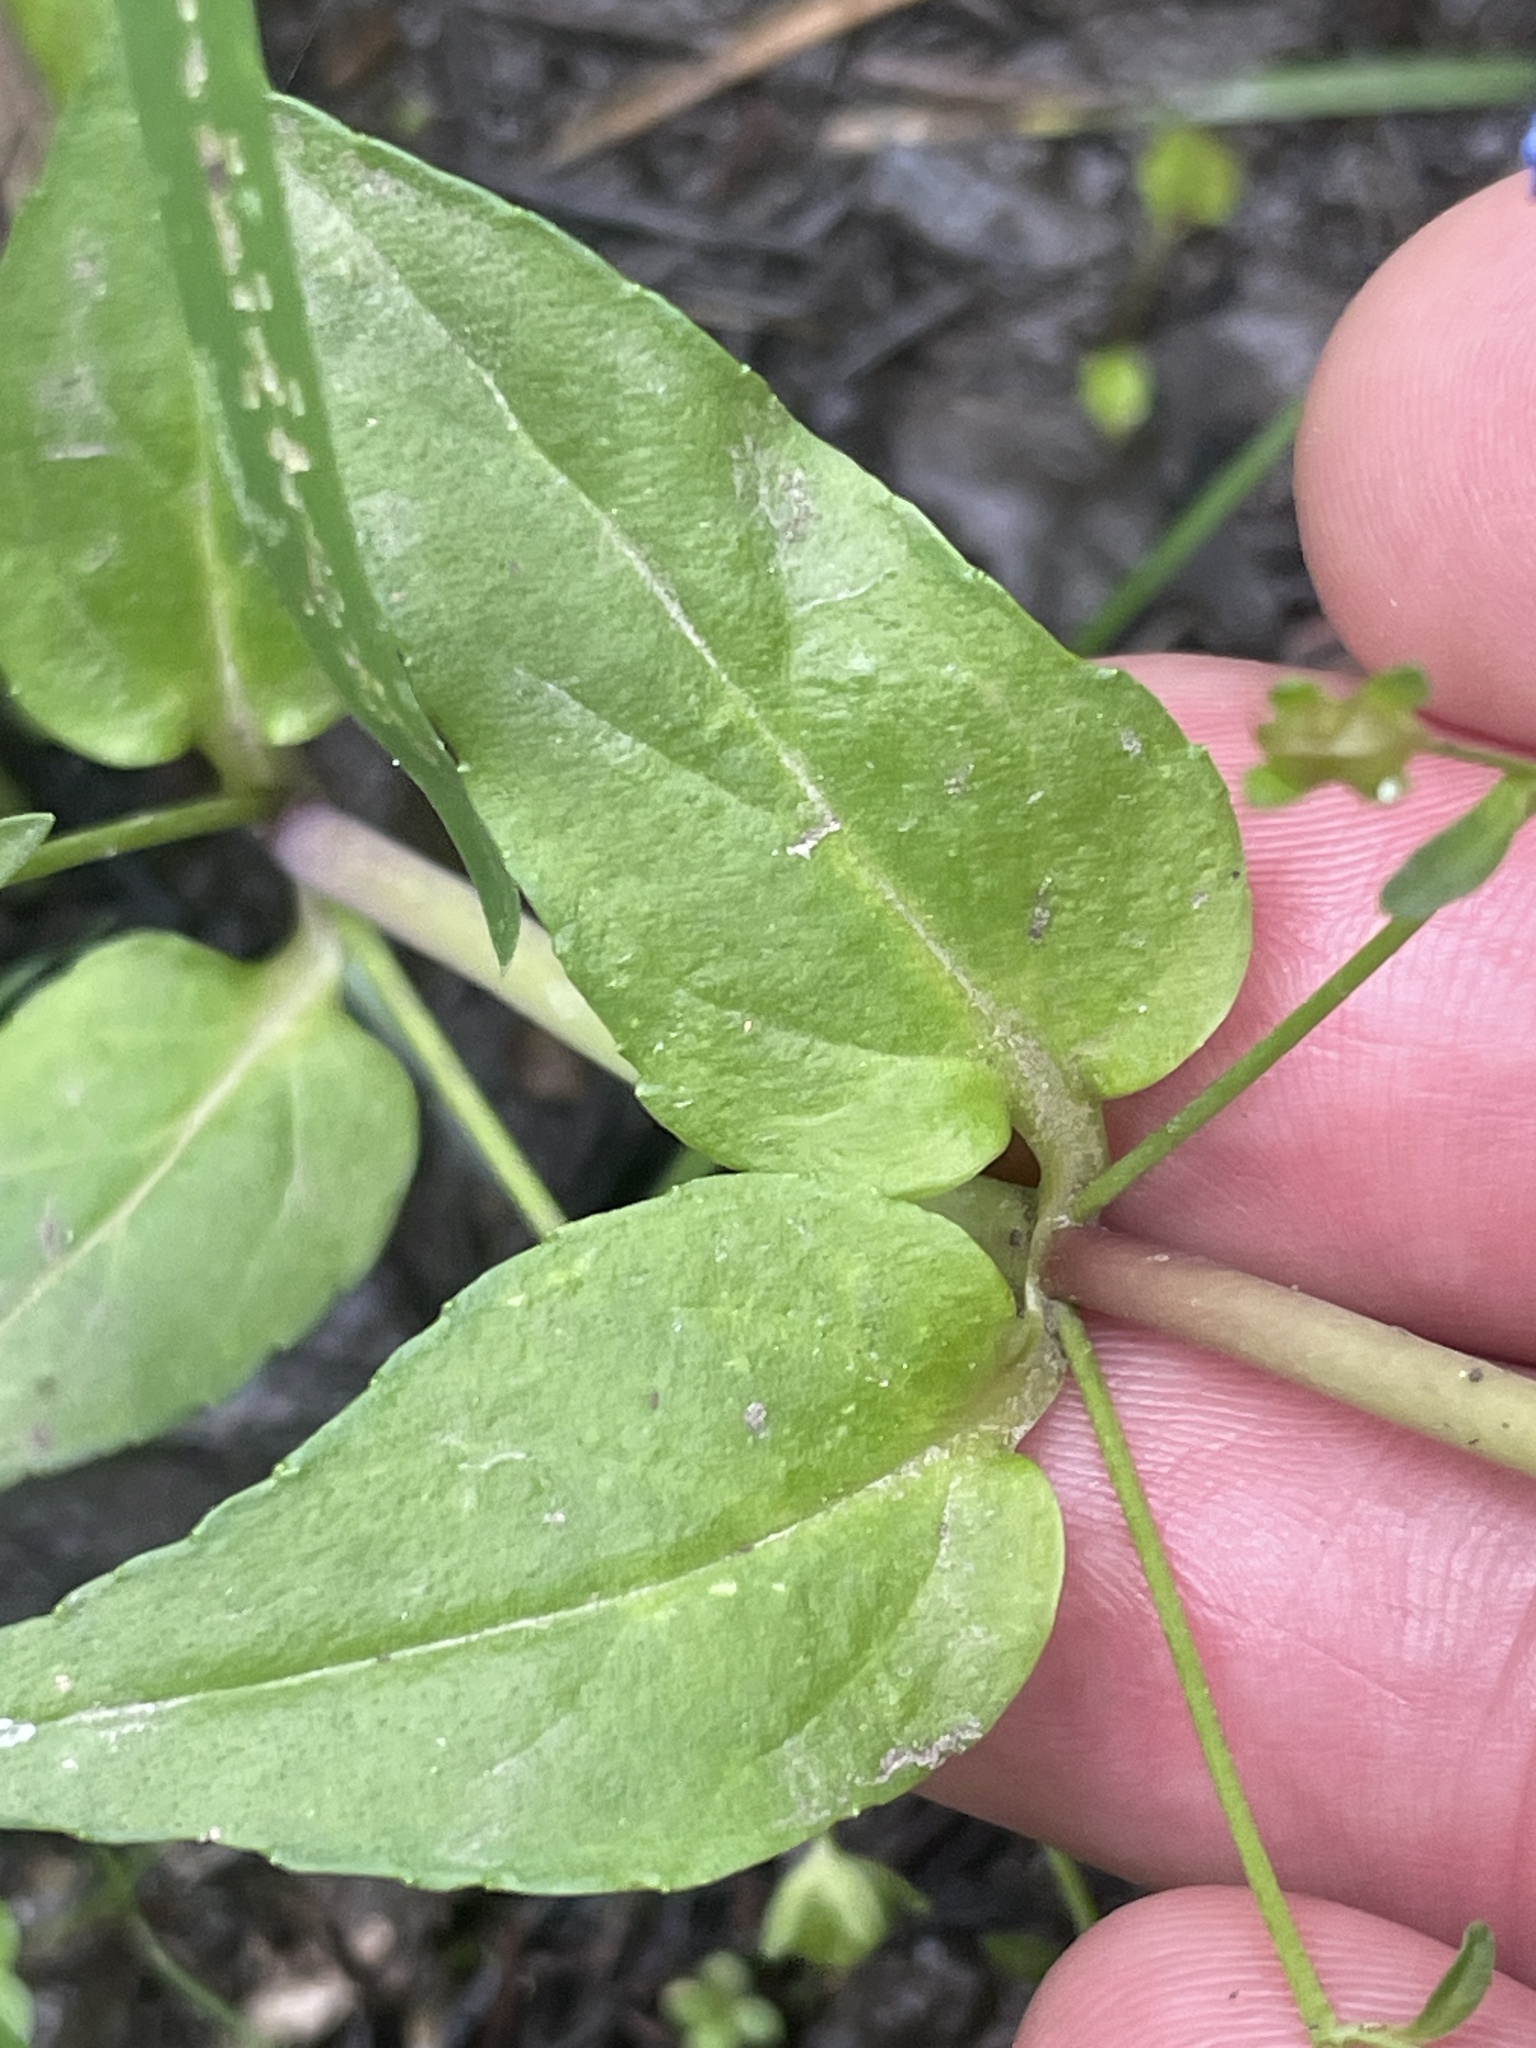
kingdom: Plantae
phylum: Tracheophyta
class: Magnoliopsida
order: Lamiales
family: Plantaginaceae
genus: Veronica
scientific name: Veronica americana
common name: American brooklime
